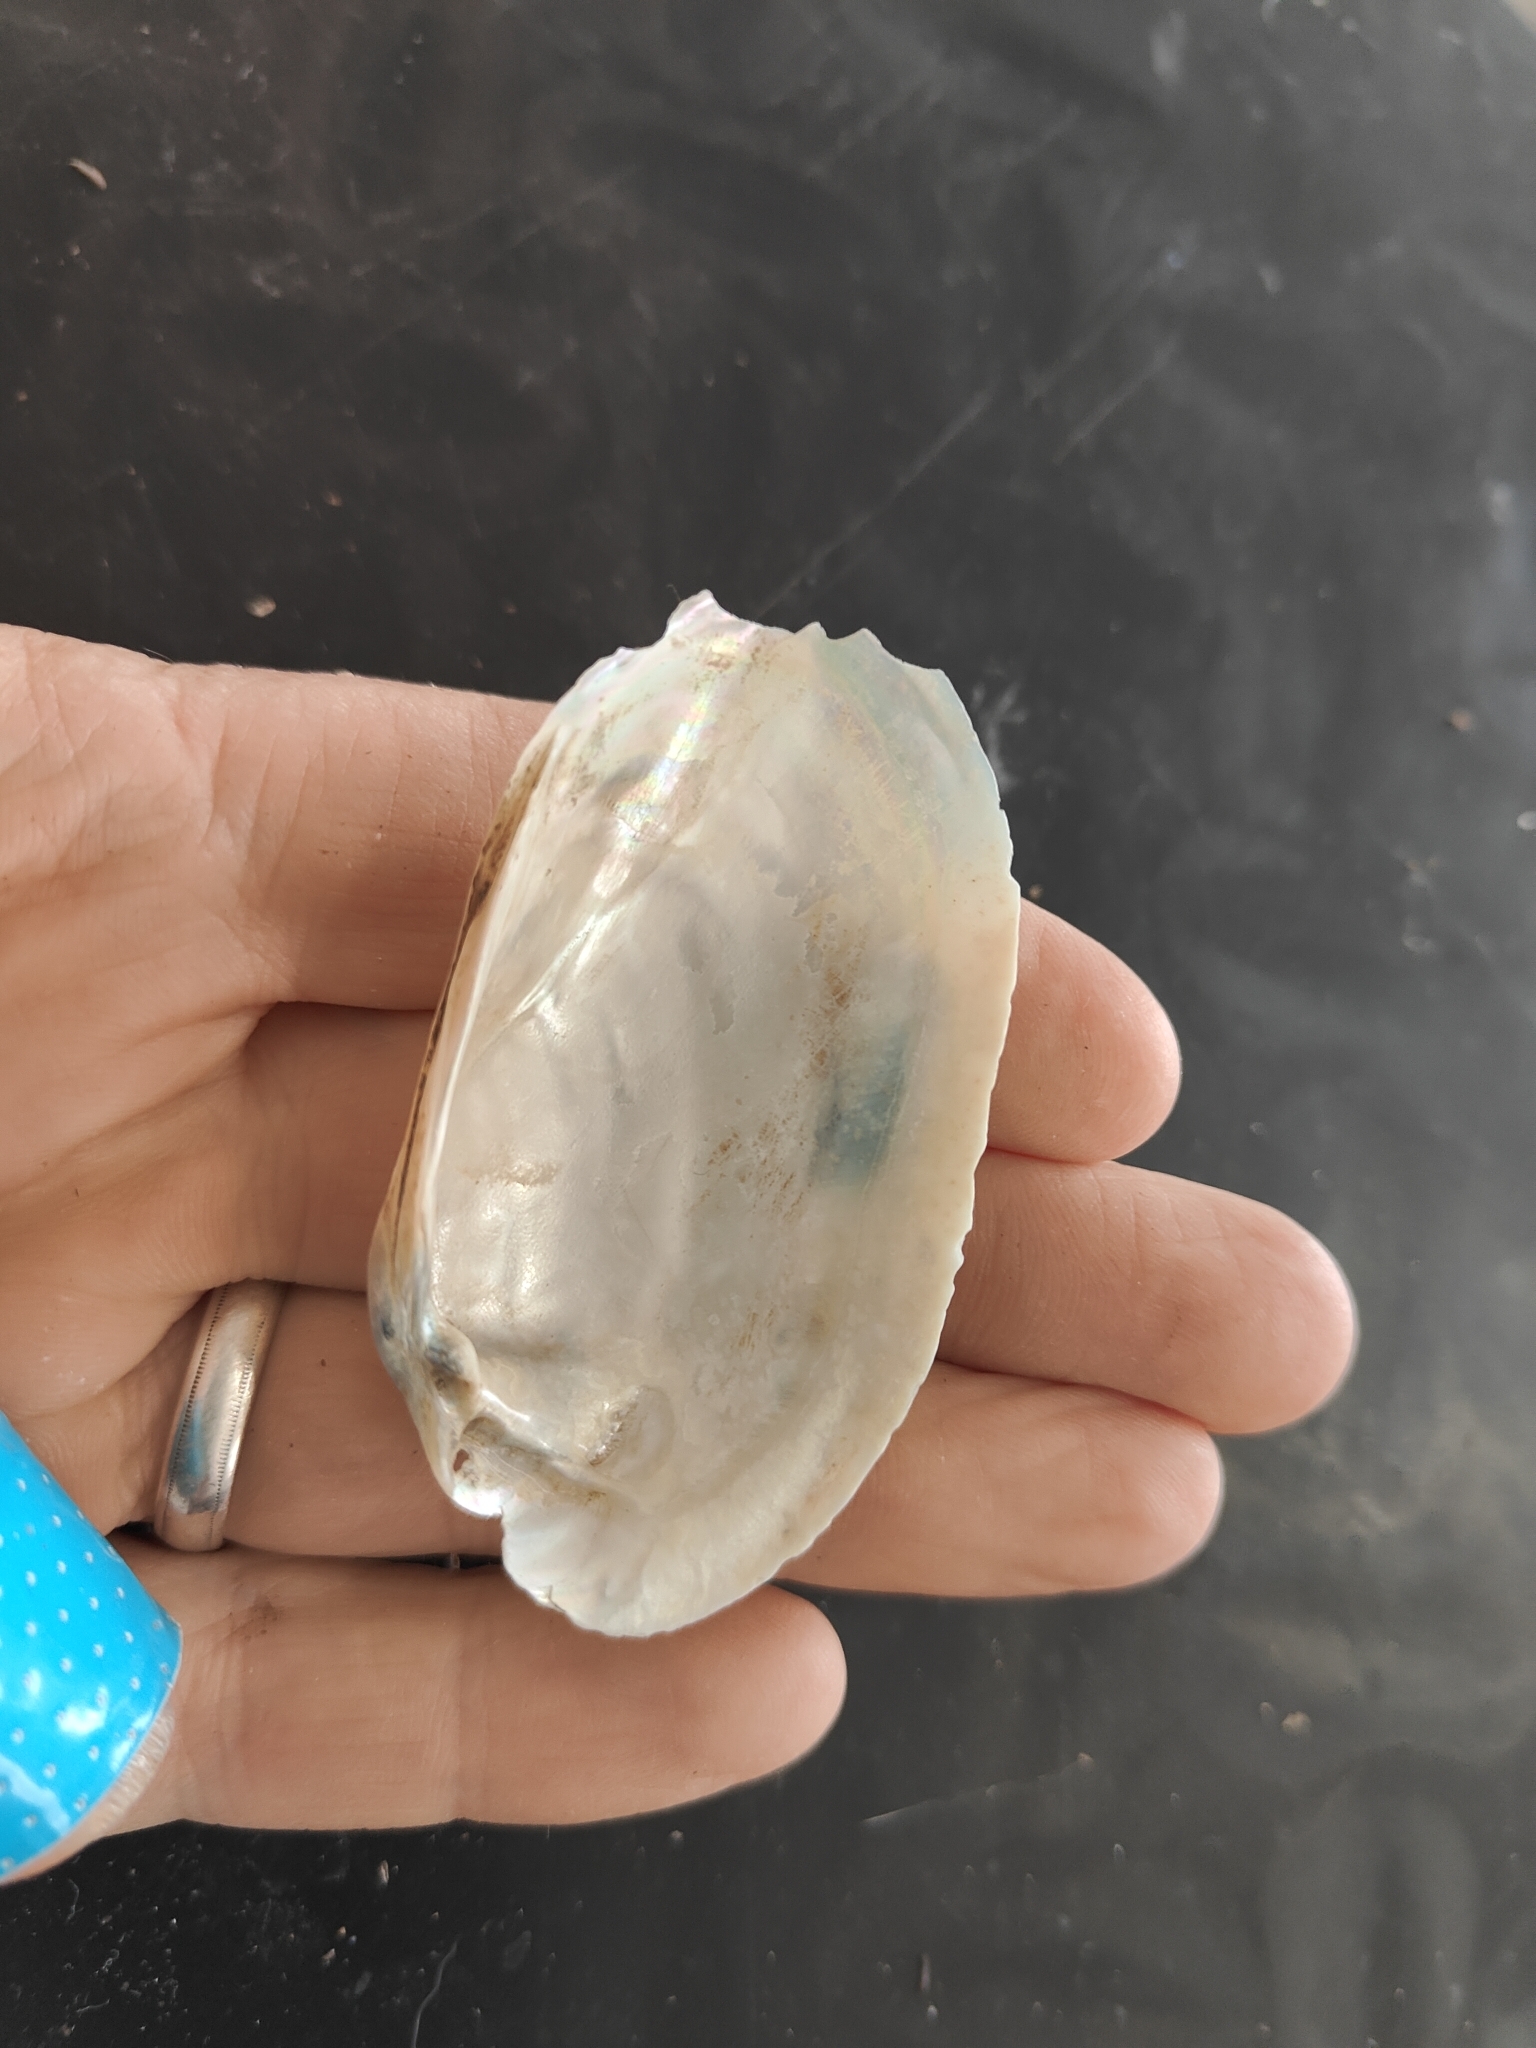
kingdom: Animalia
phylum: Mollusca
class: Bivalvia
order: Unionida
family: Unionidae
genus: Lampsilis
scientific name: Lampsilis siliquoidea
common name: Fatmucket
